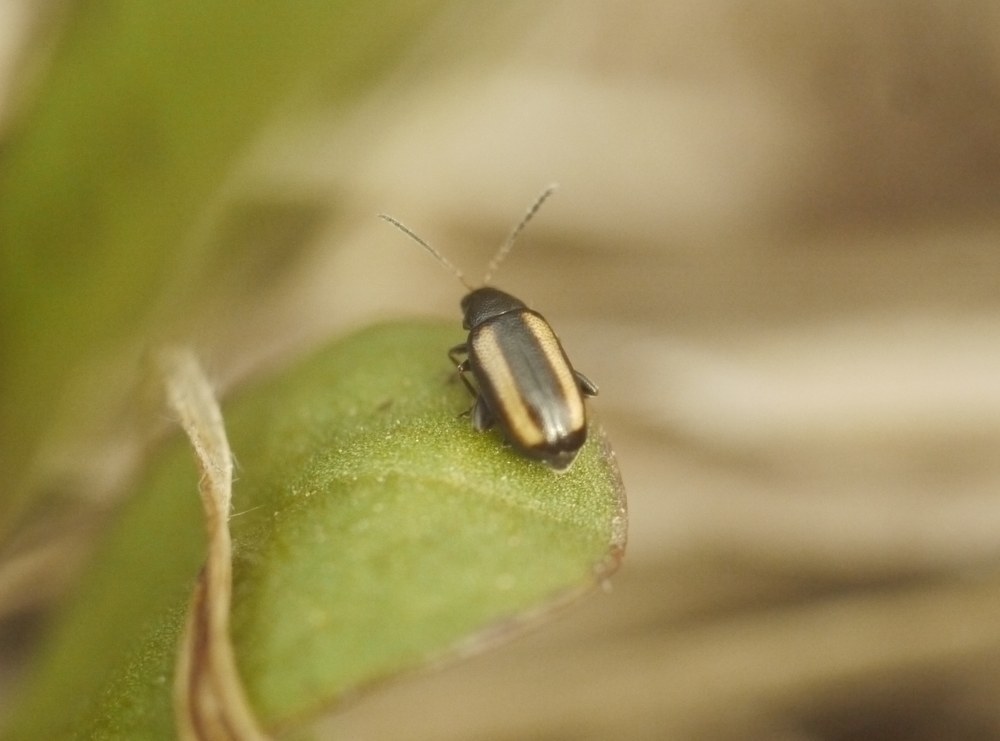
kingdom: Animalia
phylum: Arthropoda
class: Insecta
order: Coleoptera
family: Chrysomelidae
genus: Phyllotreta
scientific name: Phyllotreta vittula
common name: Barley flea beetle
